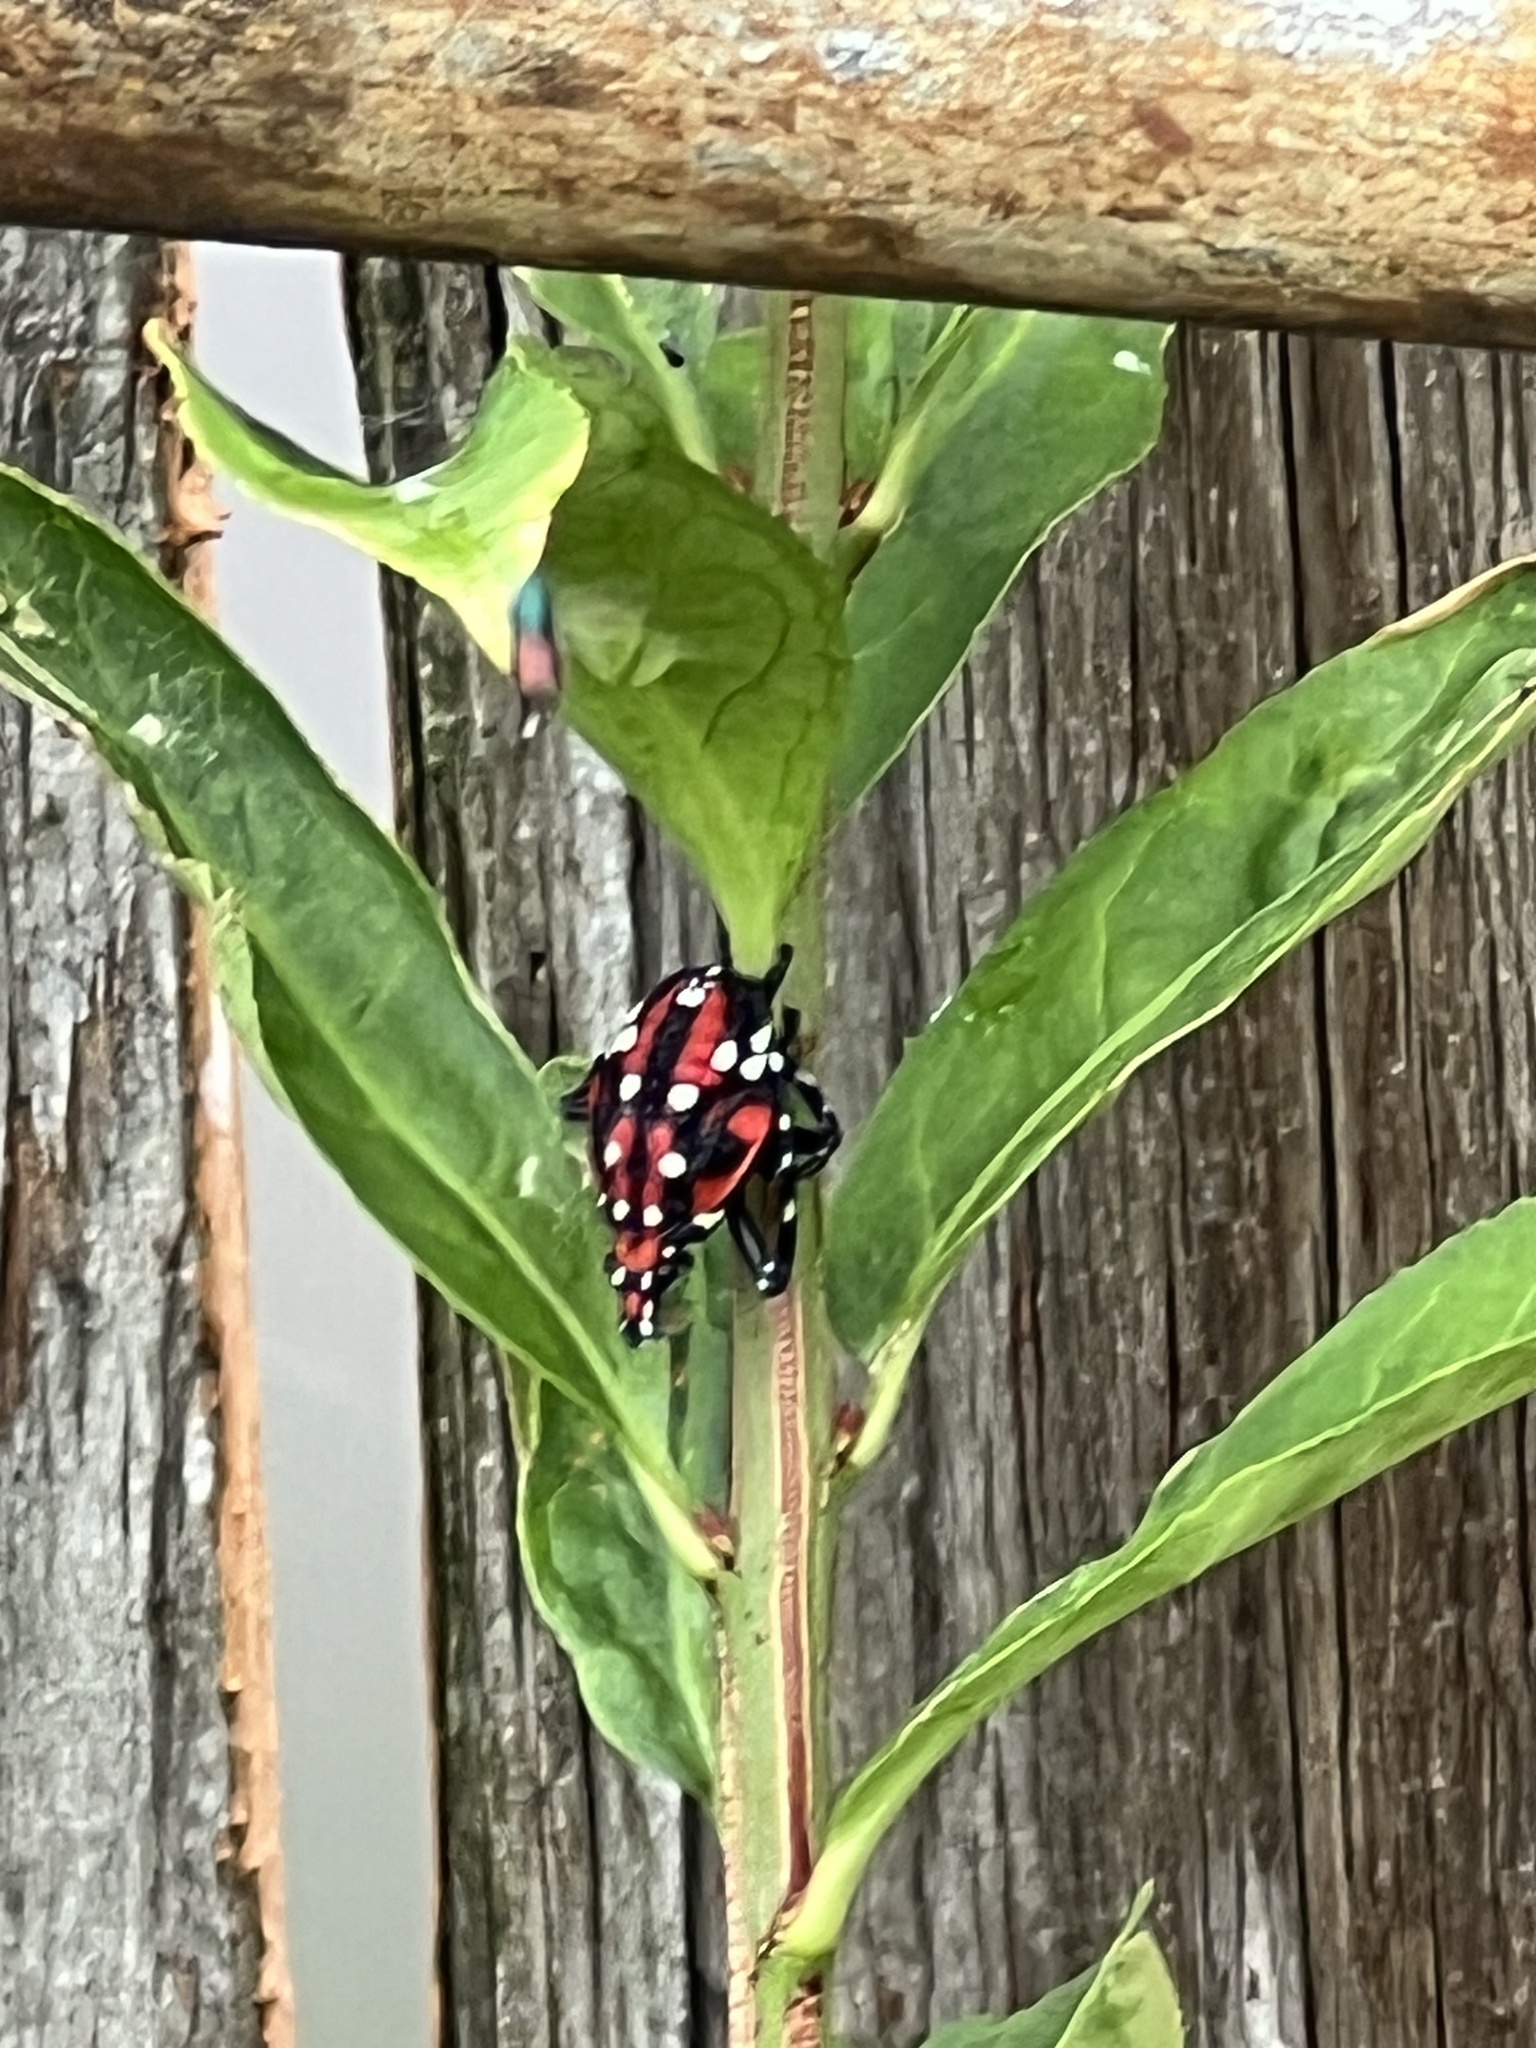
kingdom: Animalia
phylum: Arthropoda
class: Insecta
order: Hemiptera
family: Fulgoridae
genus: Lycorma
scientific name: Lycorma delicatula
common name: Spotted lanternfly
